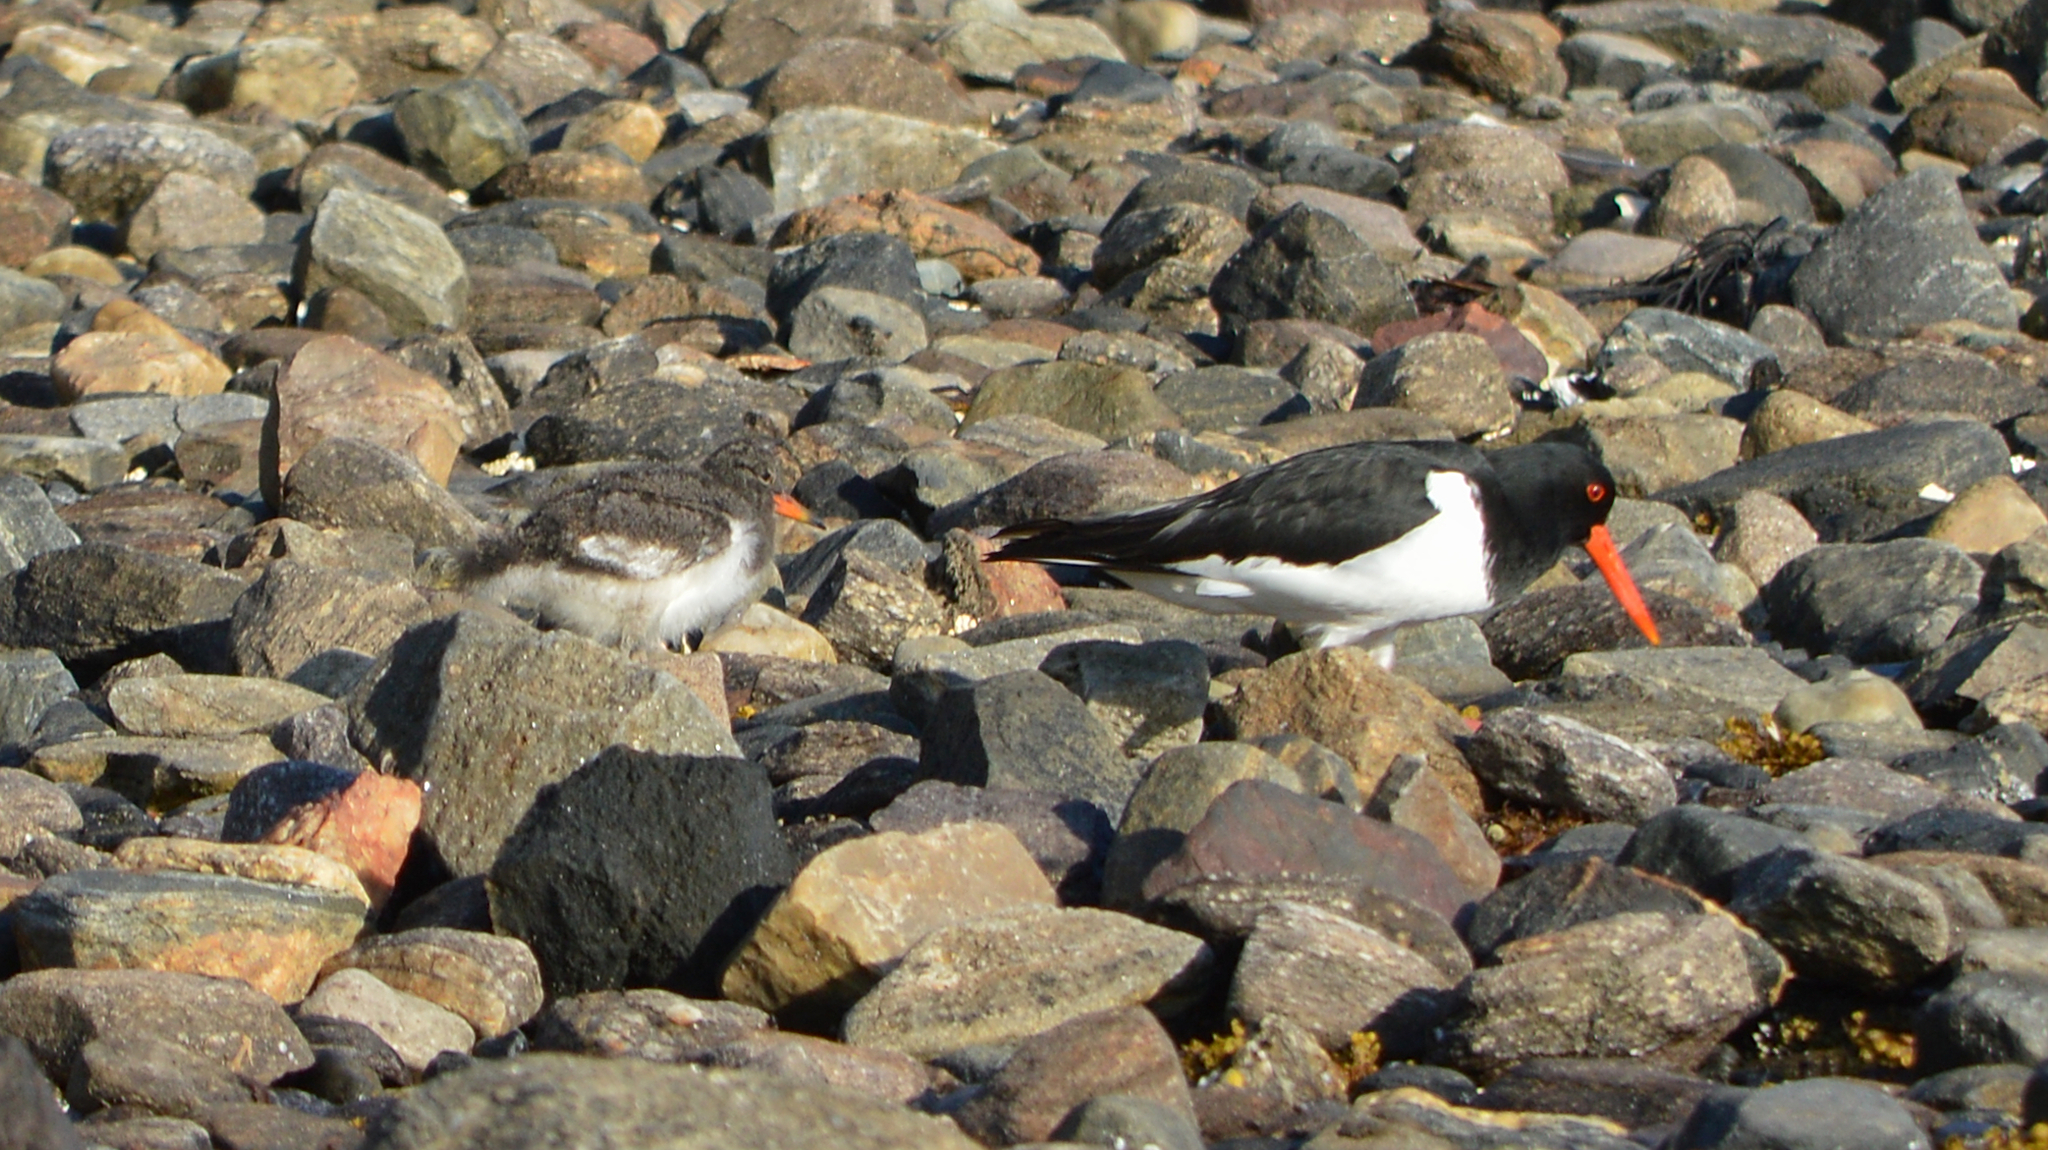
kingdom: Animalia
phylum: Chordata
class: Aves
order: Charadriiformes
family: Haematopodidae
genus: Haematopus
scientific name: Haematopus ostralegus
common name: Eurasian oystercatcher
